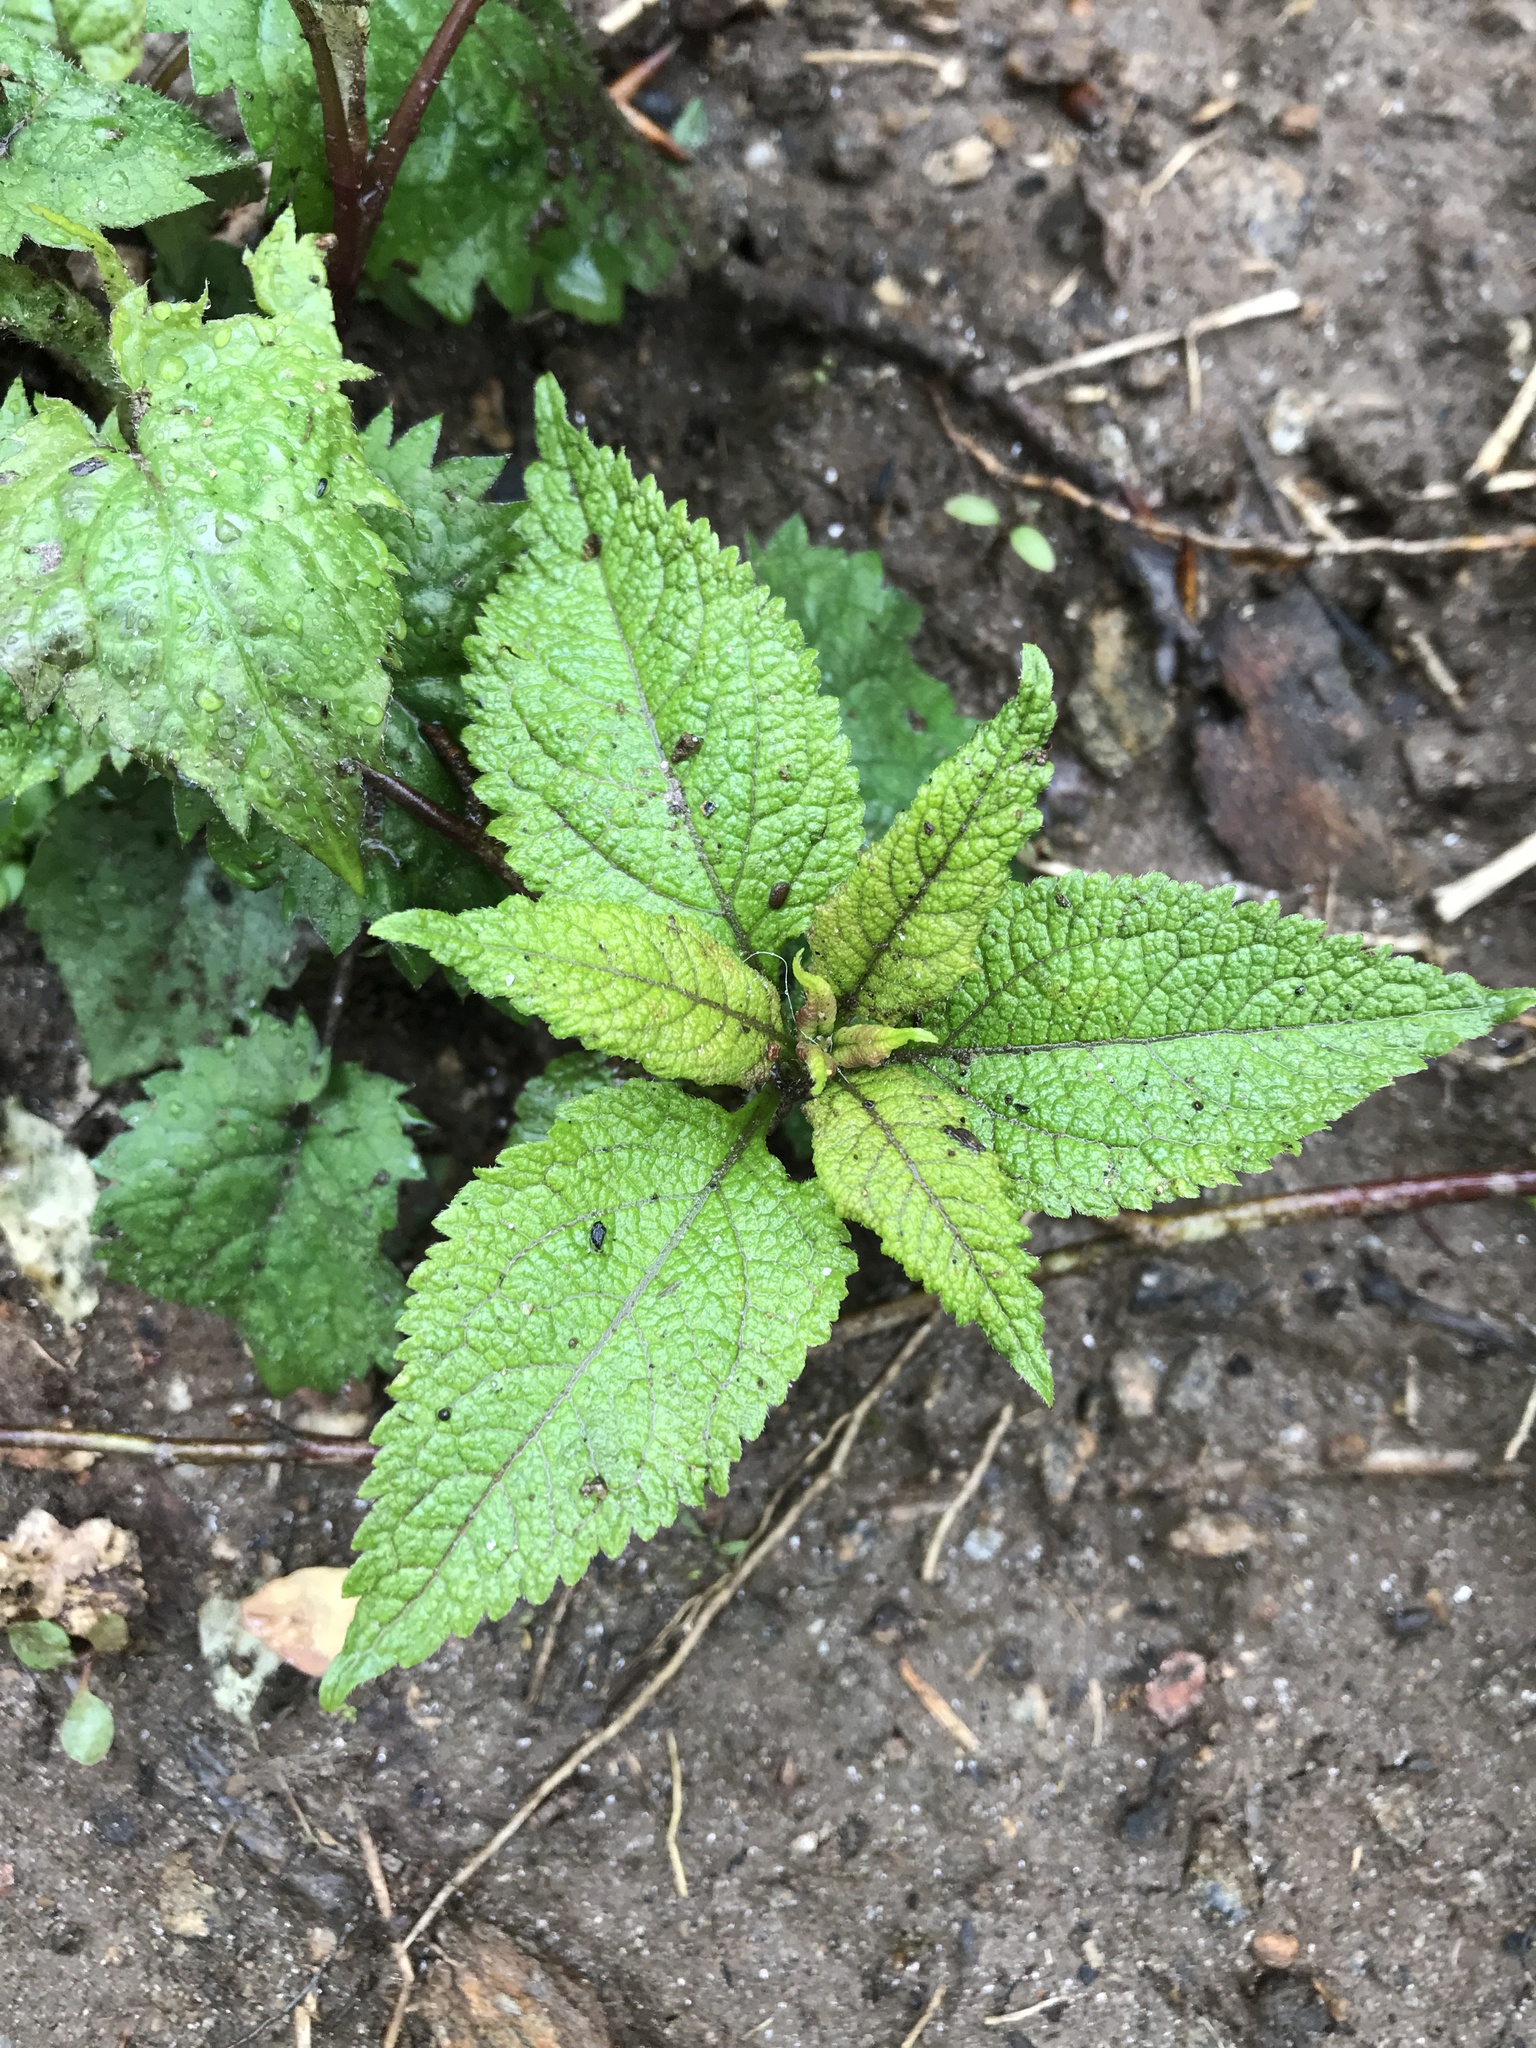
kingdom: Plantae
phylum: Tracheophyta
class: Magnoliopsida
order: Asterales
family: Asteraceae
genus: Eutrochium
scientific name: Eutrochium purpureum
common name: Gravelroot
